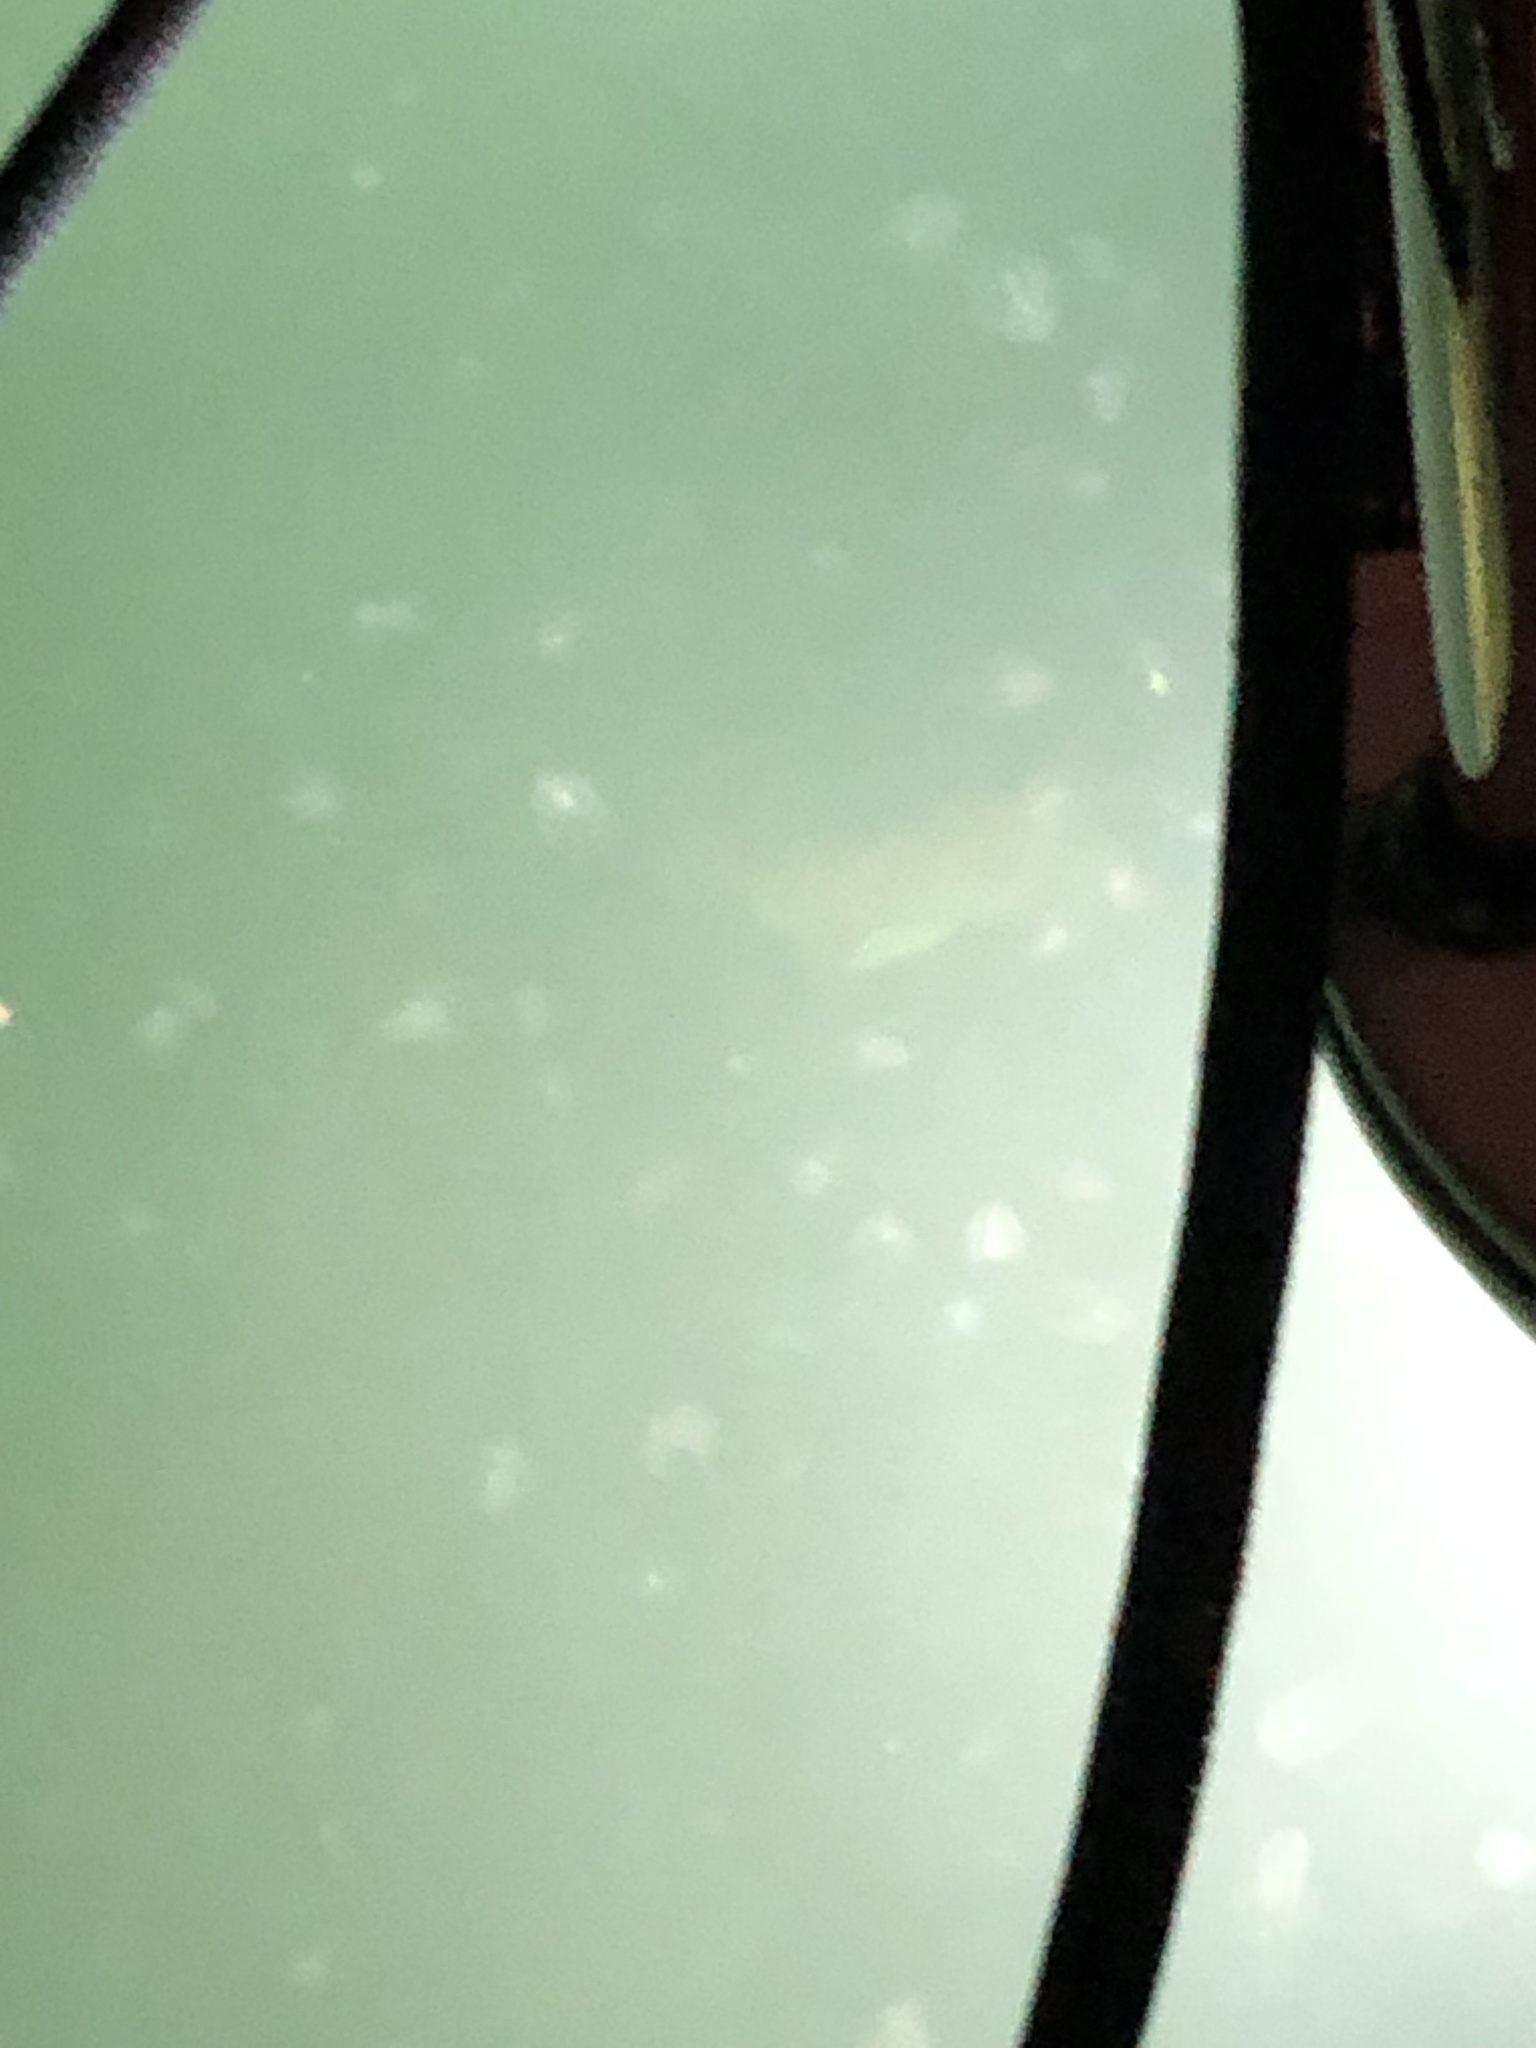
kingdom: Animalia
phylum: Chordata
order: Perciformes
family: Sparidae
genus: Stenotomus
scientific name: Stenotomus chrysops
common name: Scup
